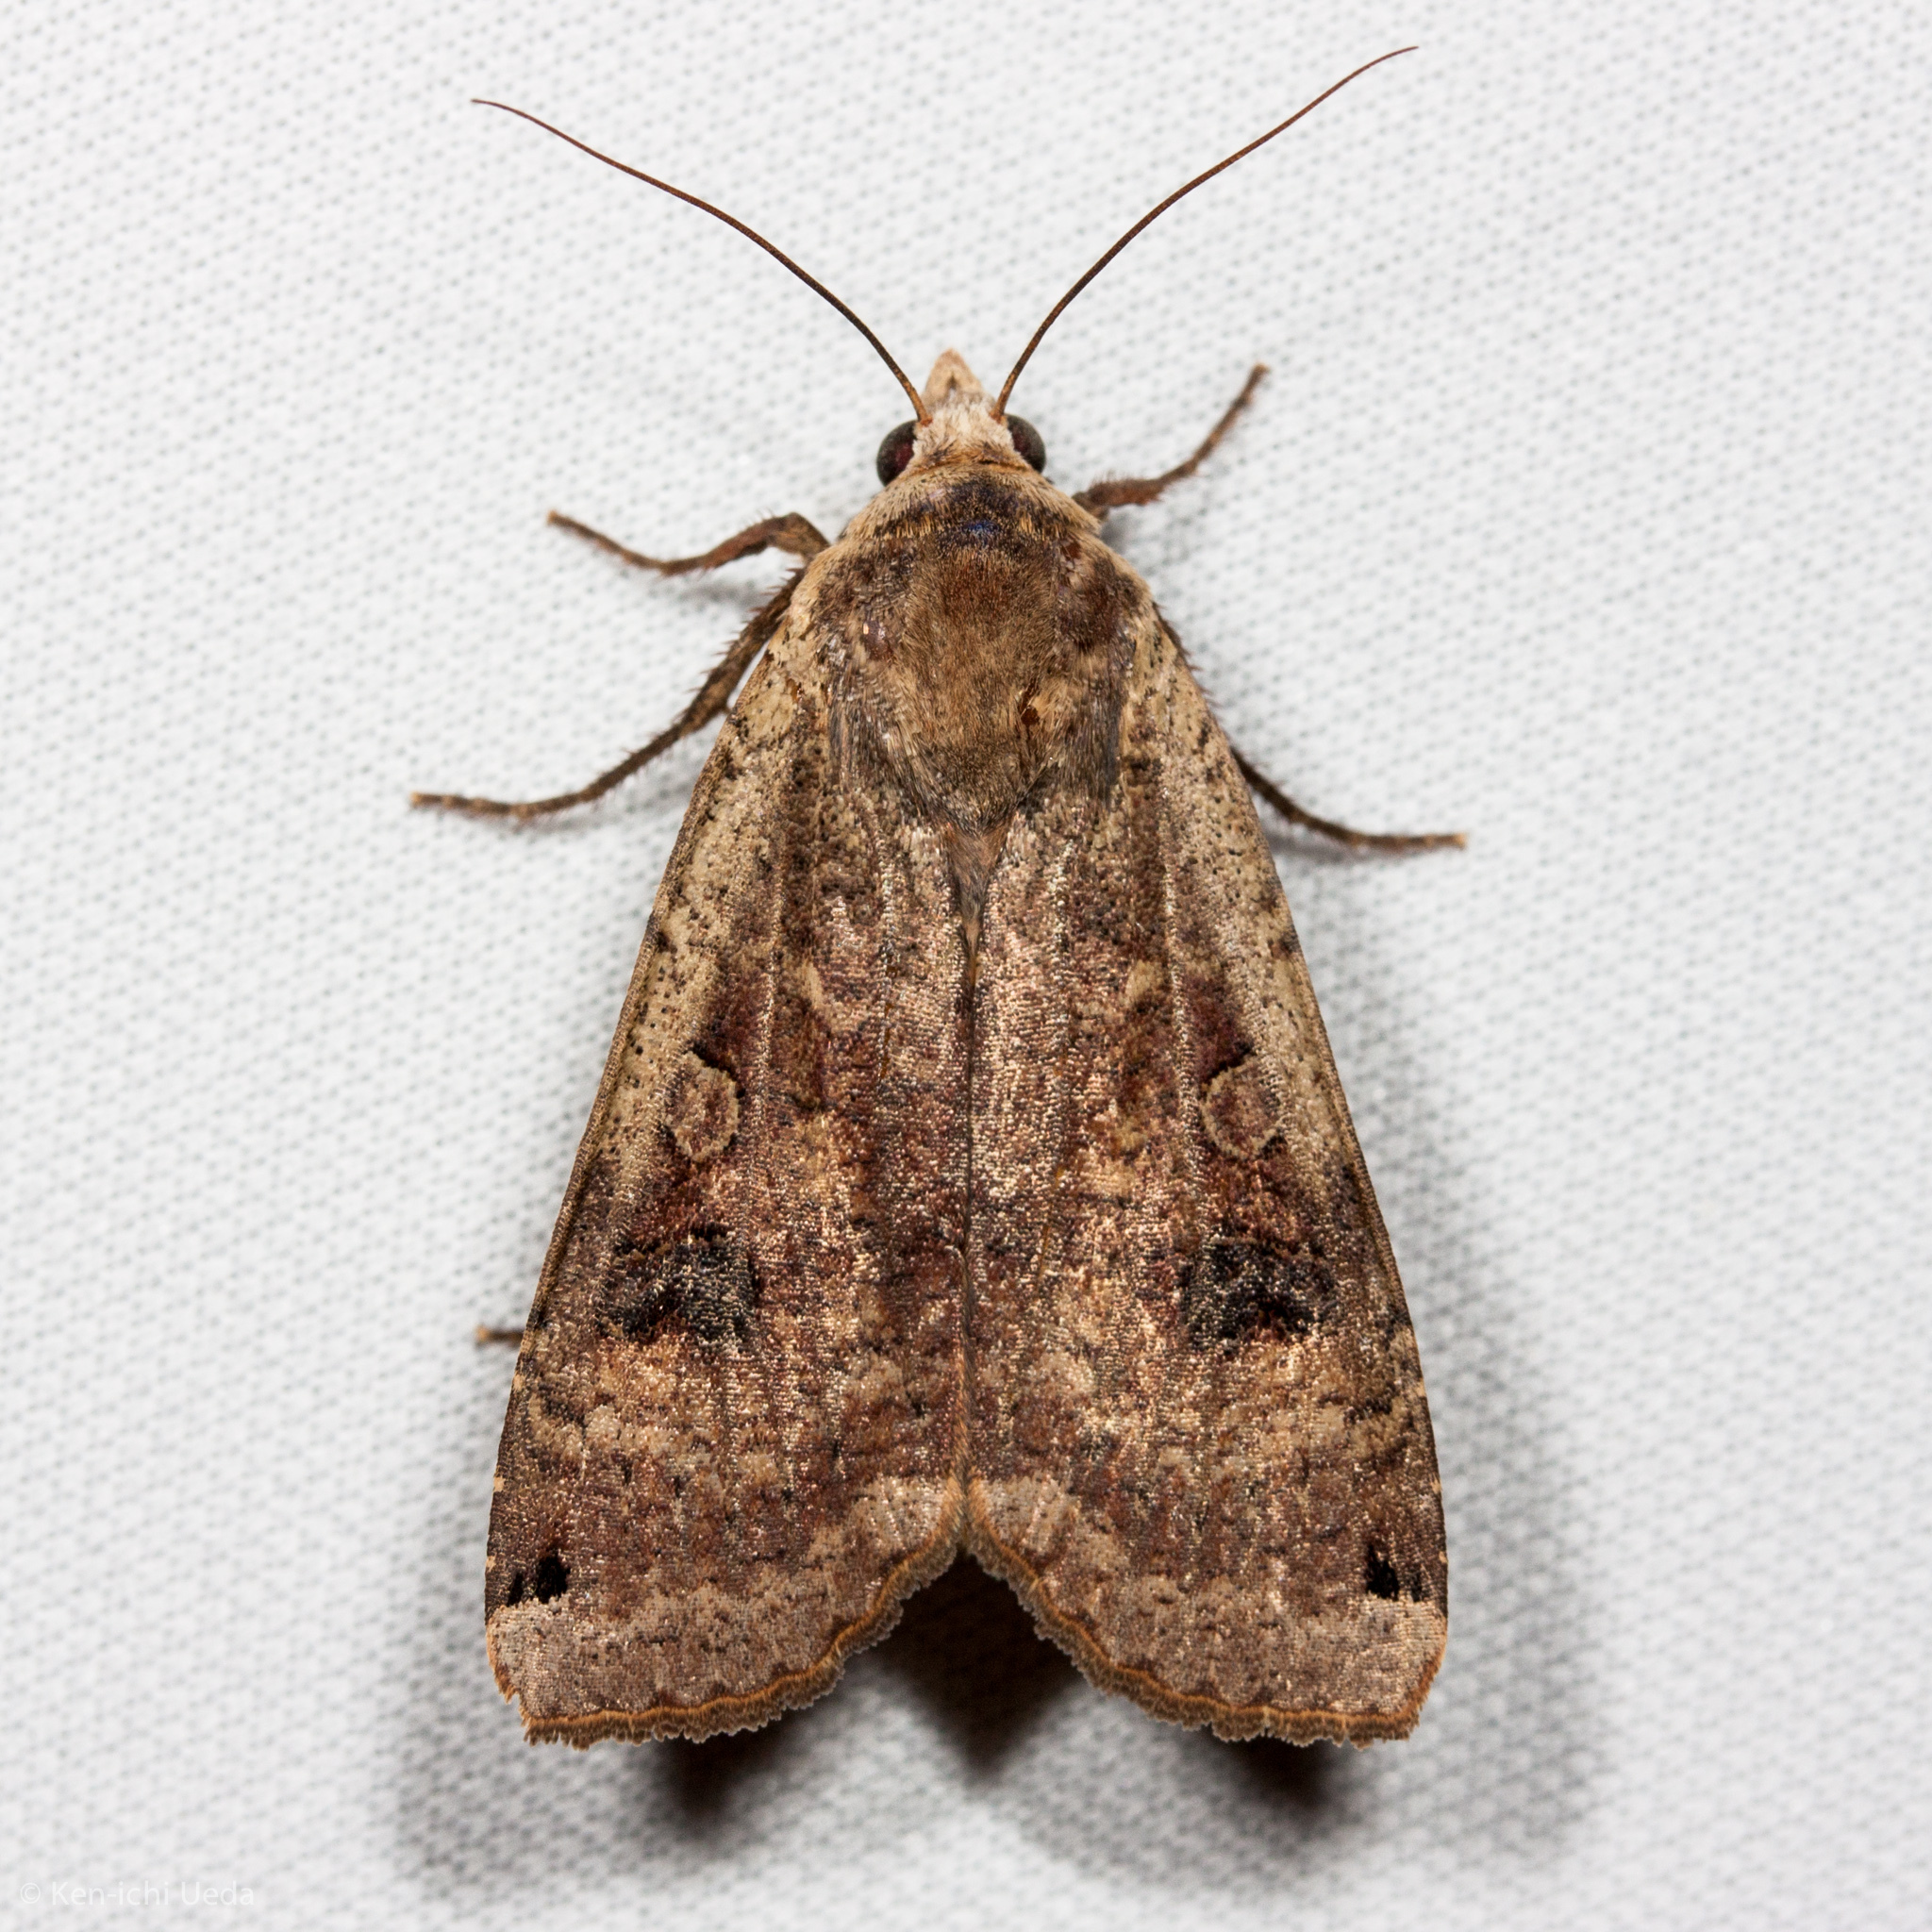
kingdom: Animalia
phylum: Arthropoda
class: Insecta
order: Lepidoptera
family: Noctuidae
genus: Noctua
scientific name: Noctua pronuba
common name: Large yellow underwing
